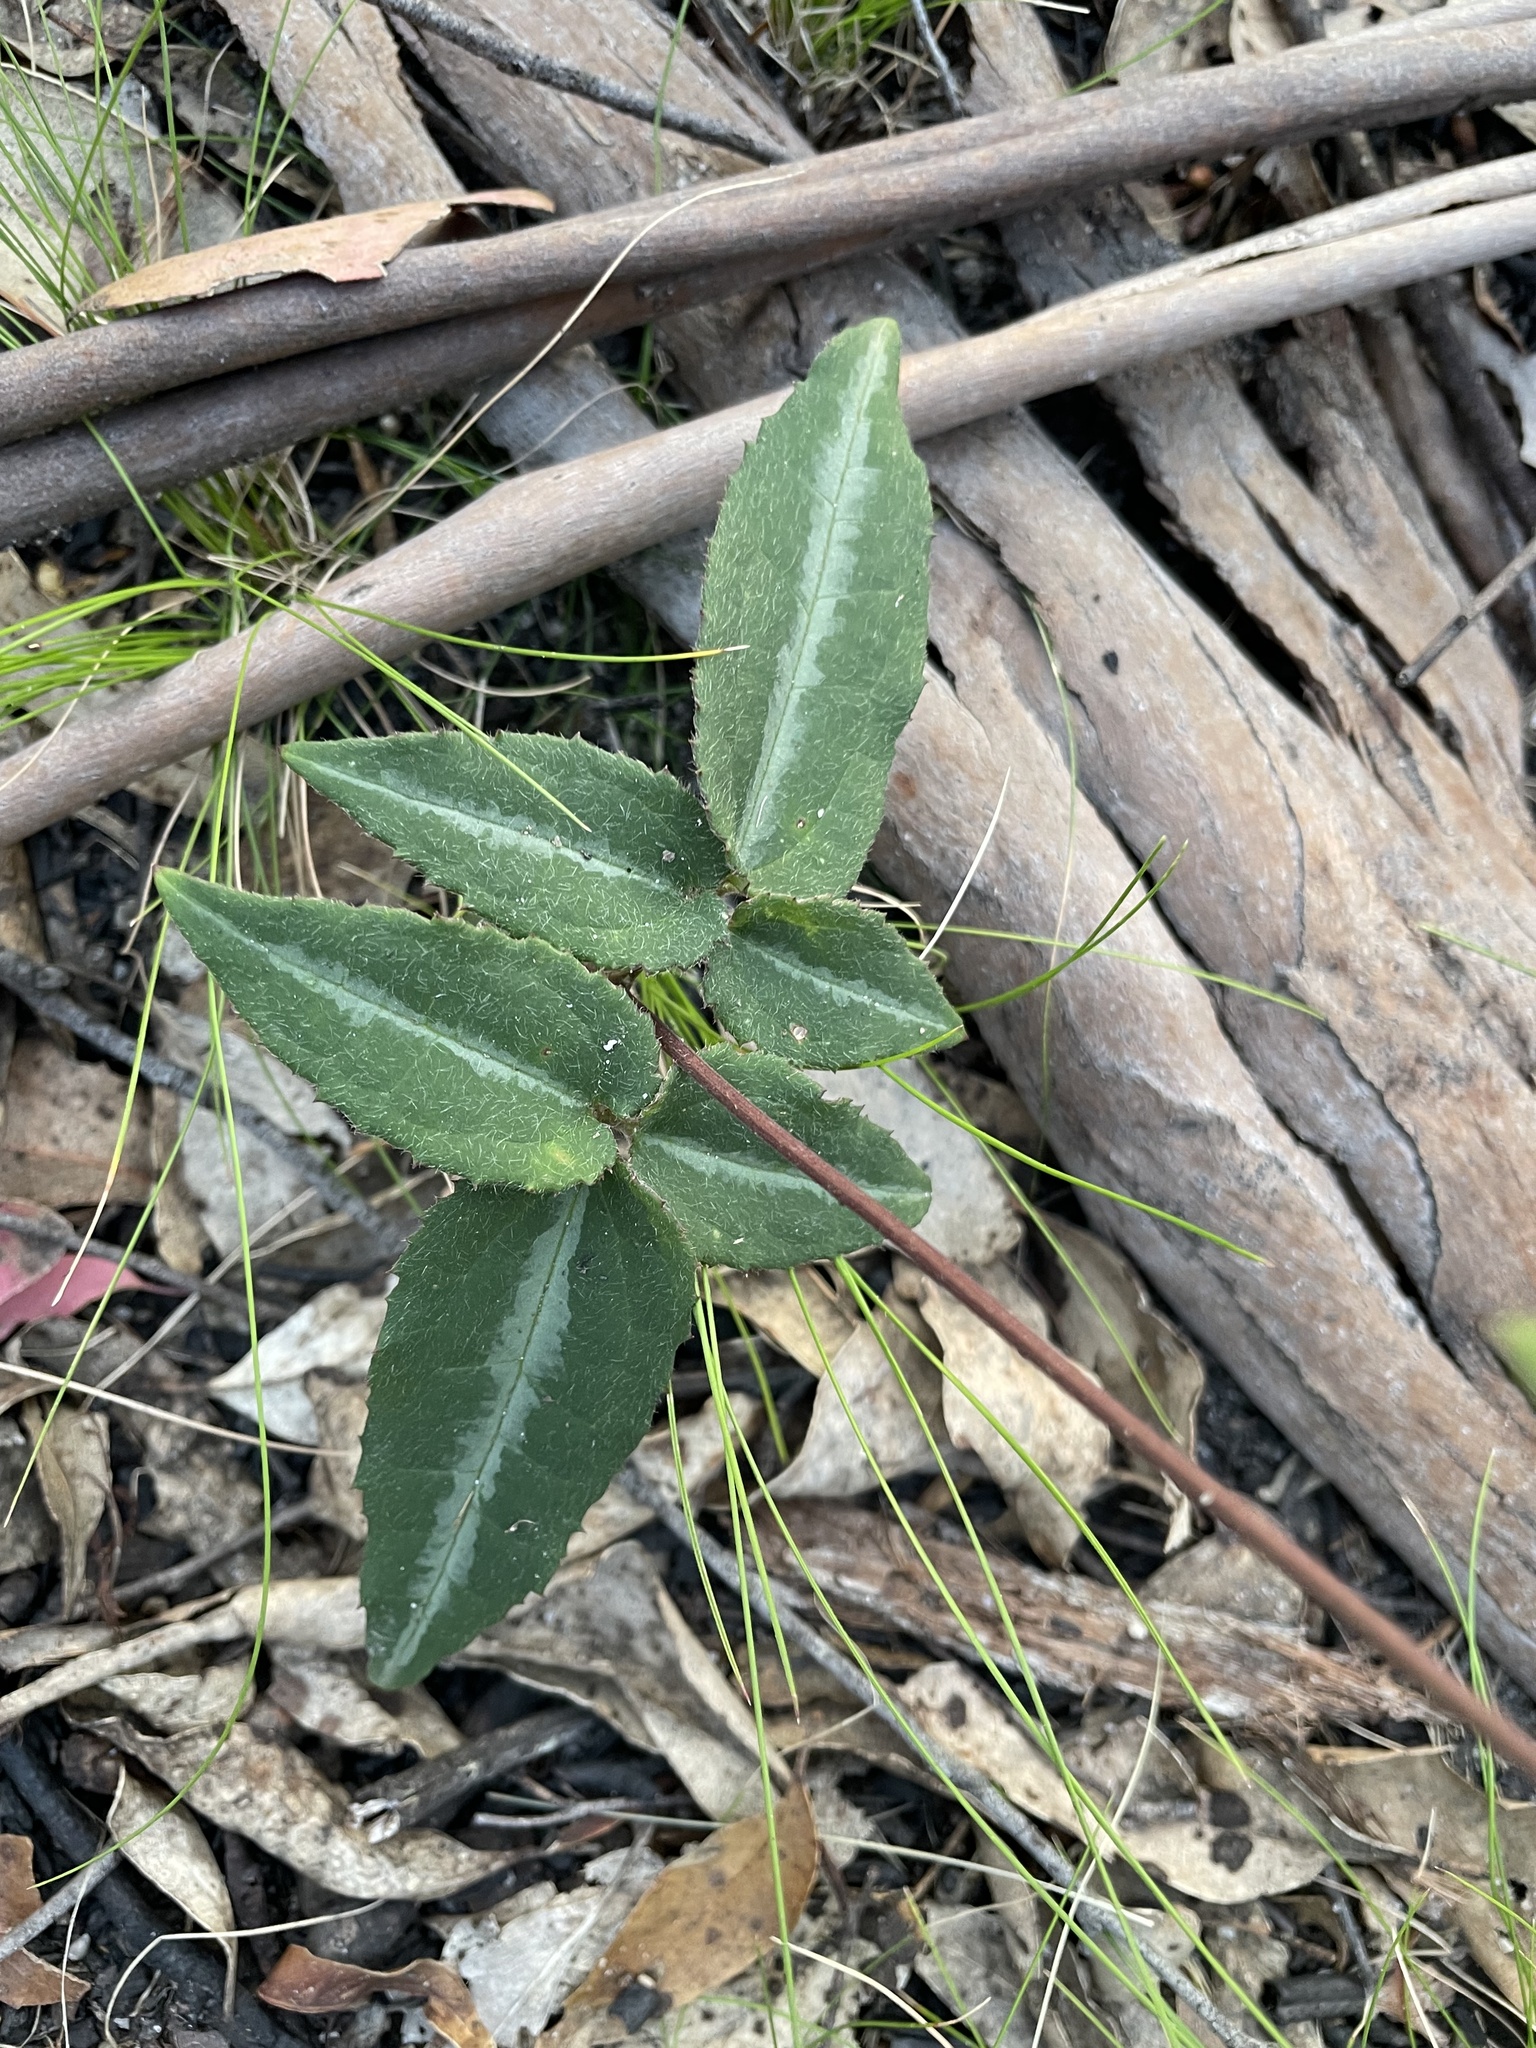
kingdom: Plantae
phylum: Tracheophyta
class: Magnoliopsida
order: Ranunculales
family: Ranunculaceae
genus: Clematis
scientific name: Clematis aristata
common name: Mountain clematis
